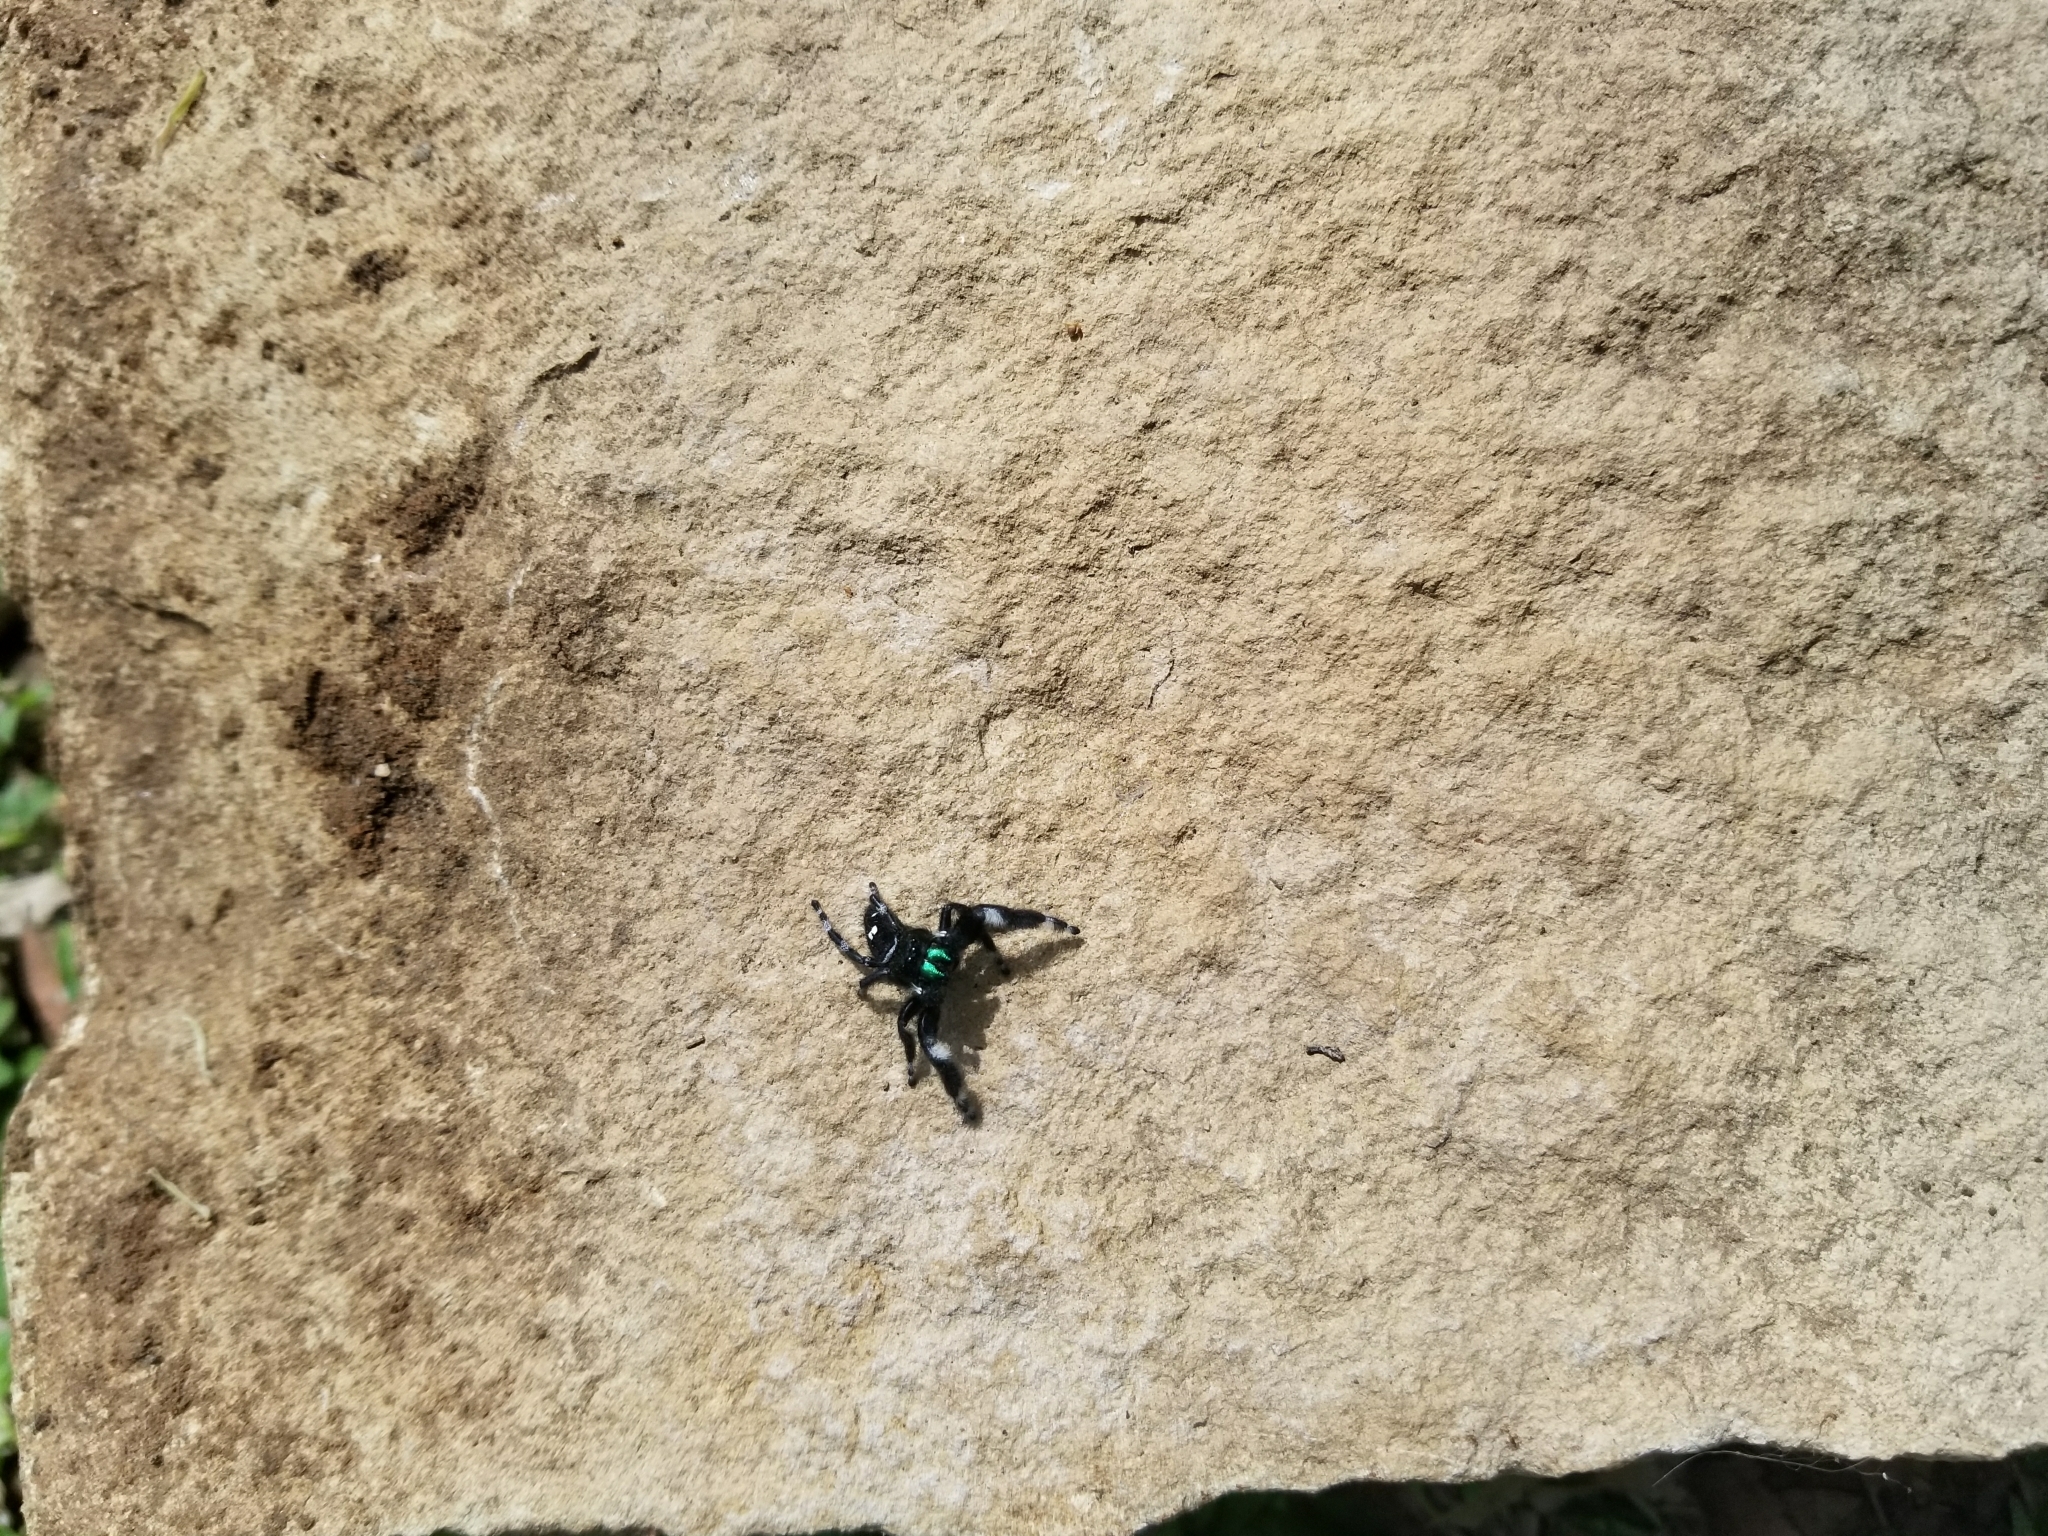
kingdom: Animalia
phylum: Arthropoda
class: Arachnida
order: Araneae
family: Salticidae
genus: Phidippus
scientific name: Phidippus audax
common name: Bold jumper
